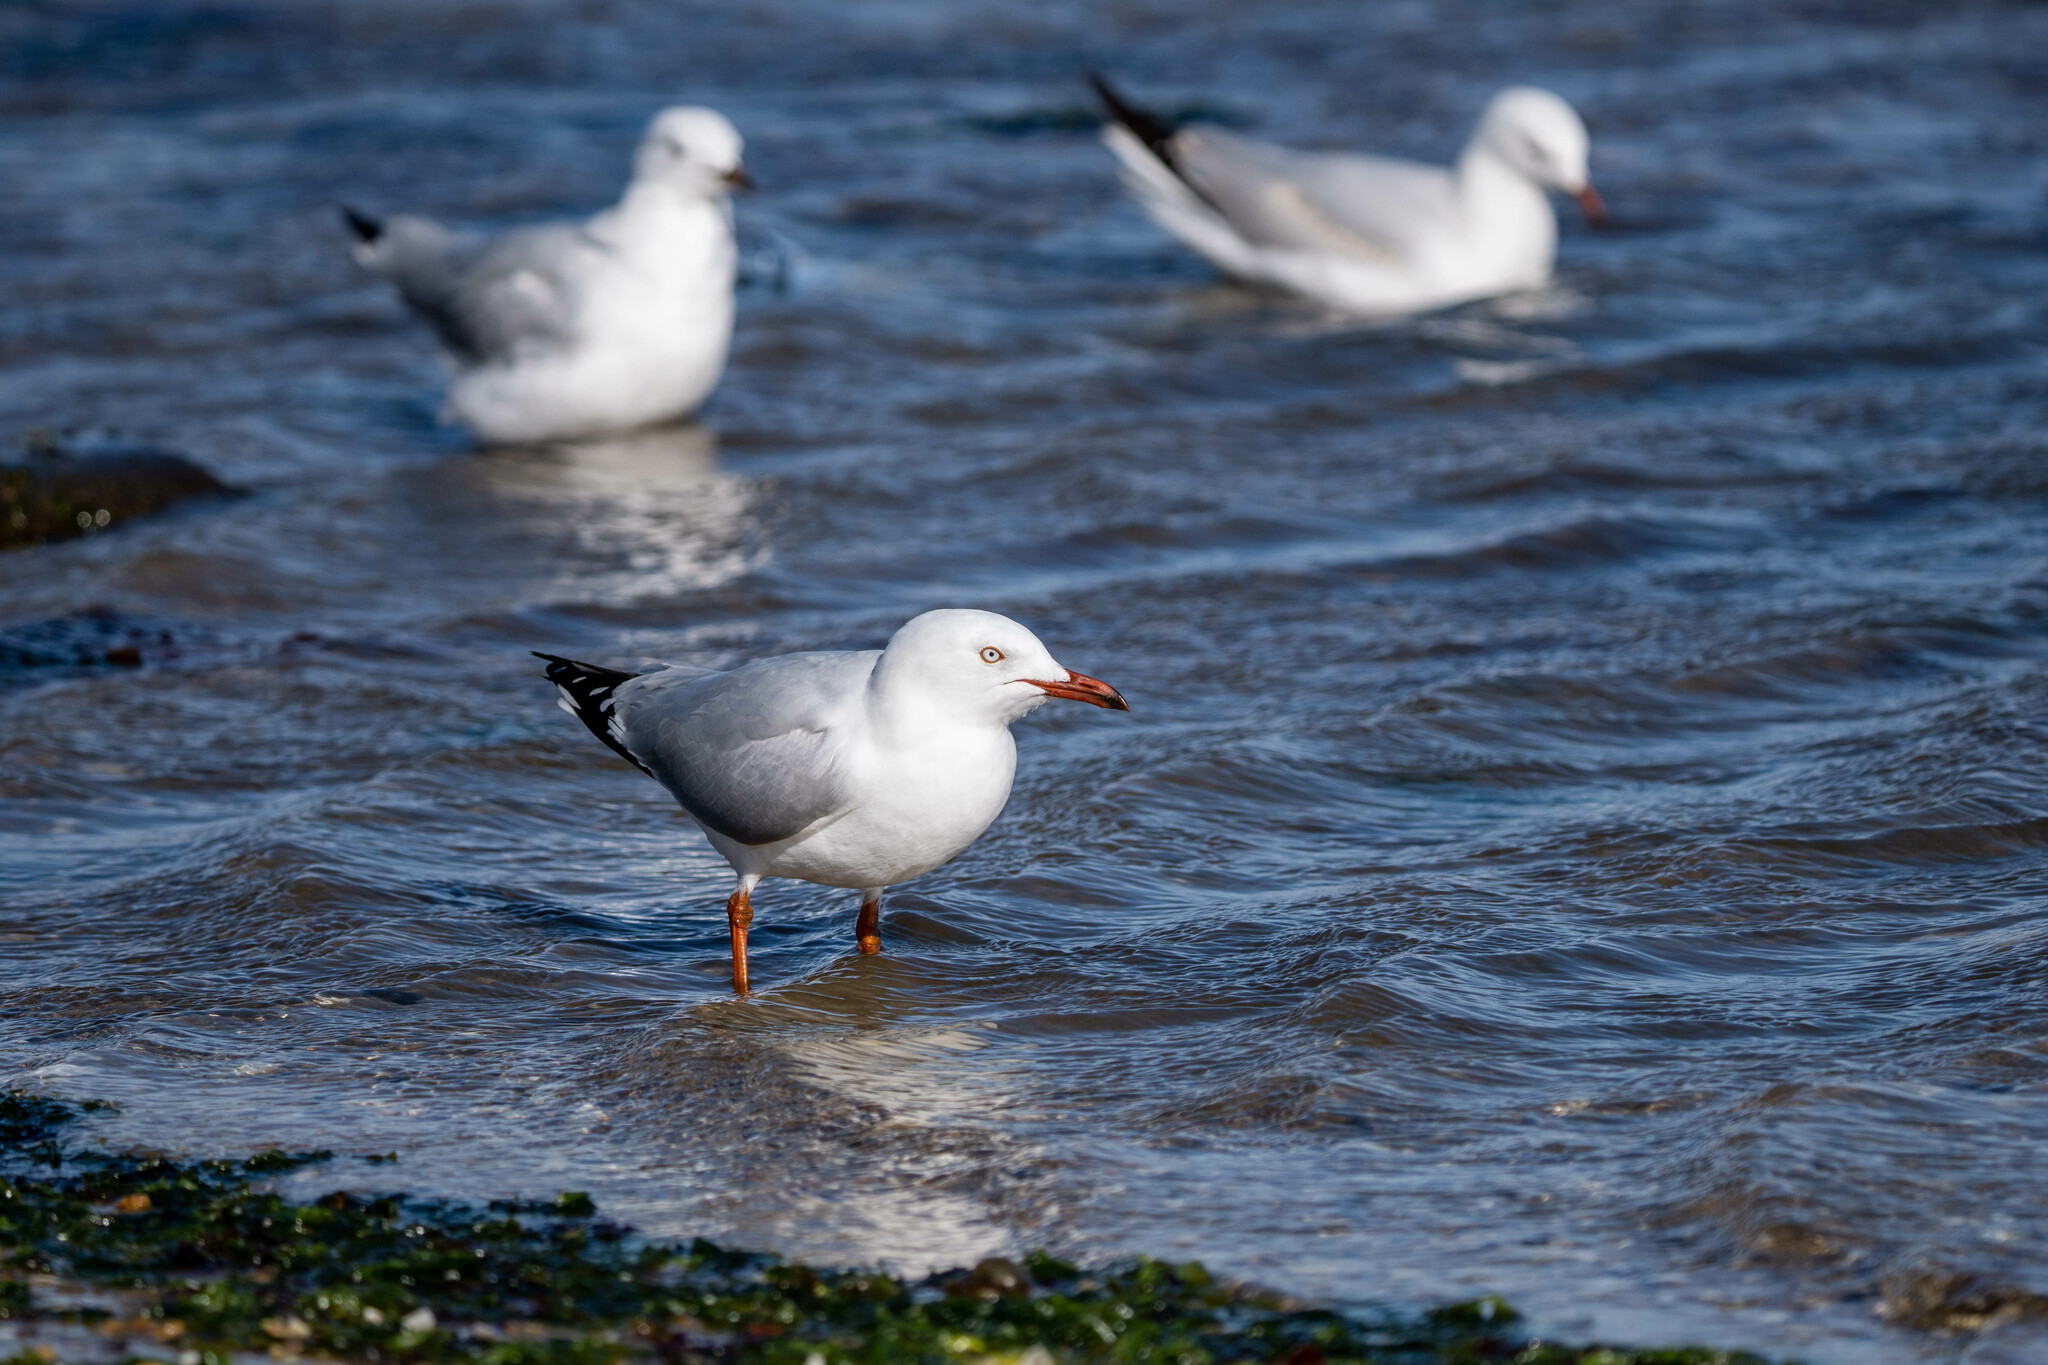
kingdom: Animalia
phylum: Chordata
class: Aves
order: Charadriiformes
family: Laridae
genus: Chroicocephalus
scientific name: Chroicocephalus novaehollandiae
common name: Silver gull
